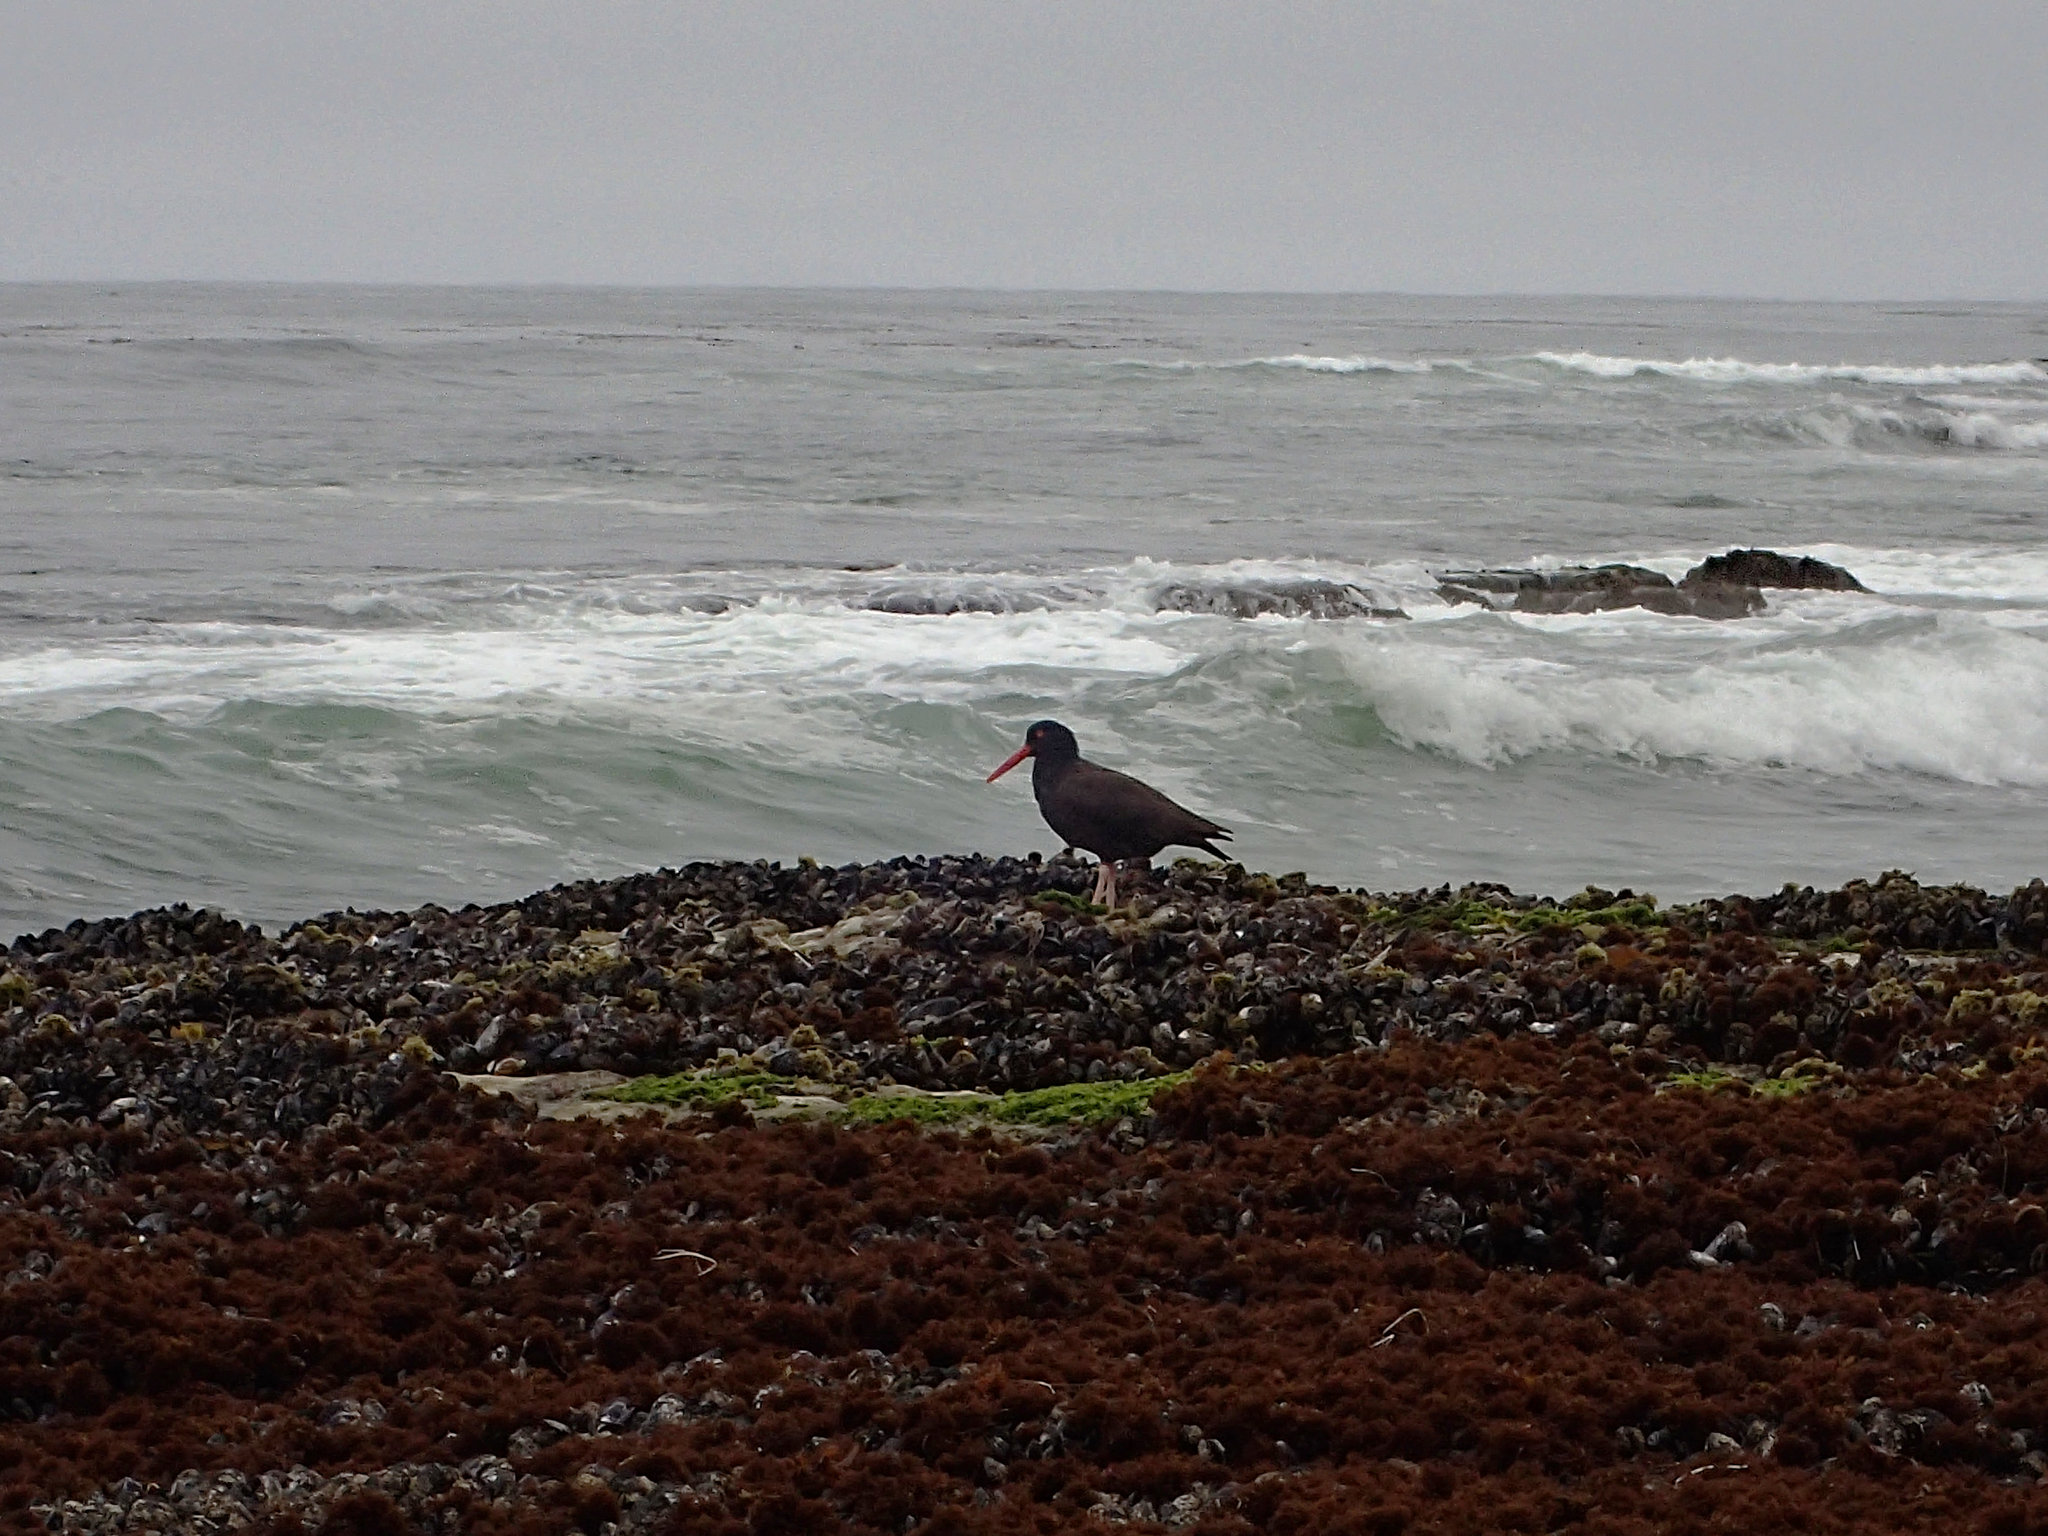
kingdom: Animalia
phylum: Chordata
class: Aves
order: Charadriiformes
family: Haematopodidae
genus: Haematopus
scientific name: Haematopus bachmani
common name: Black oystercatcher
